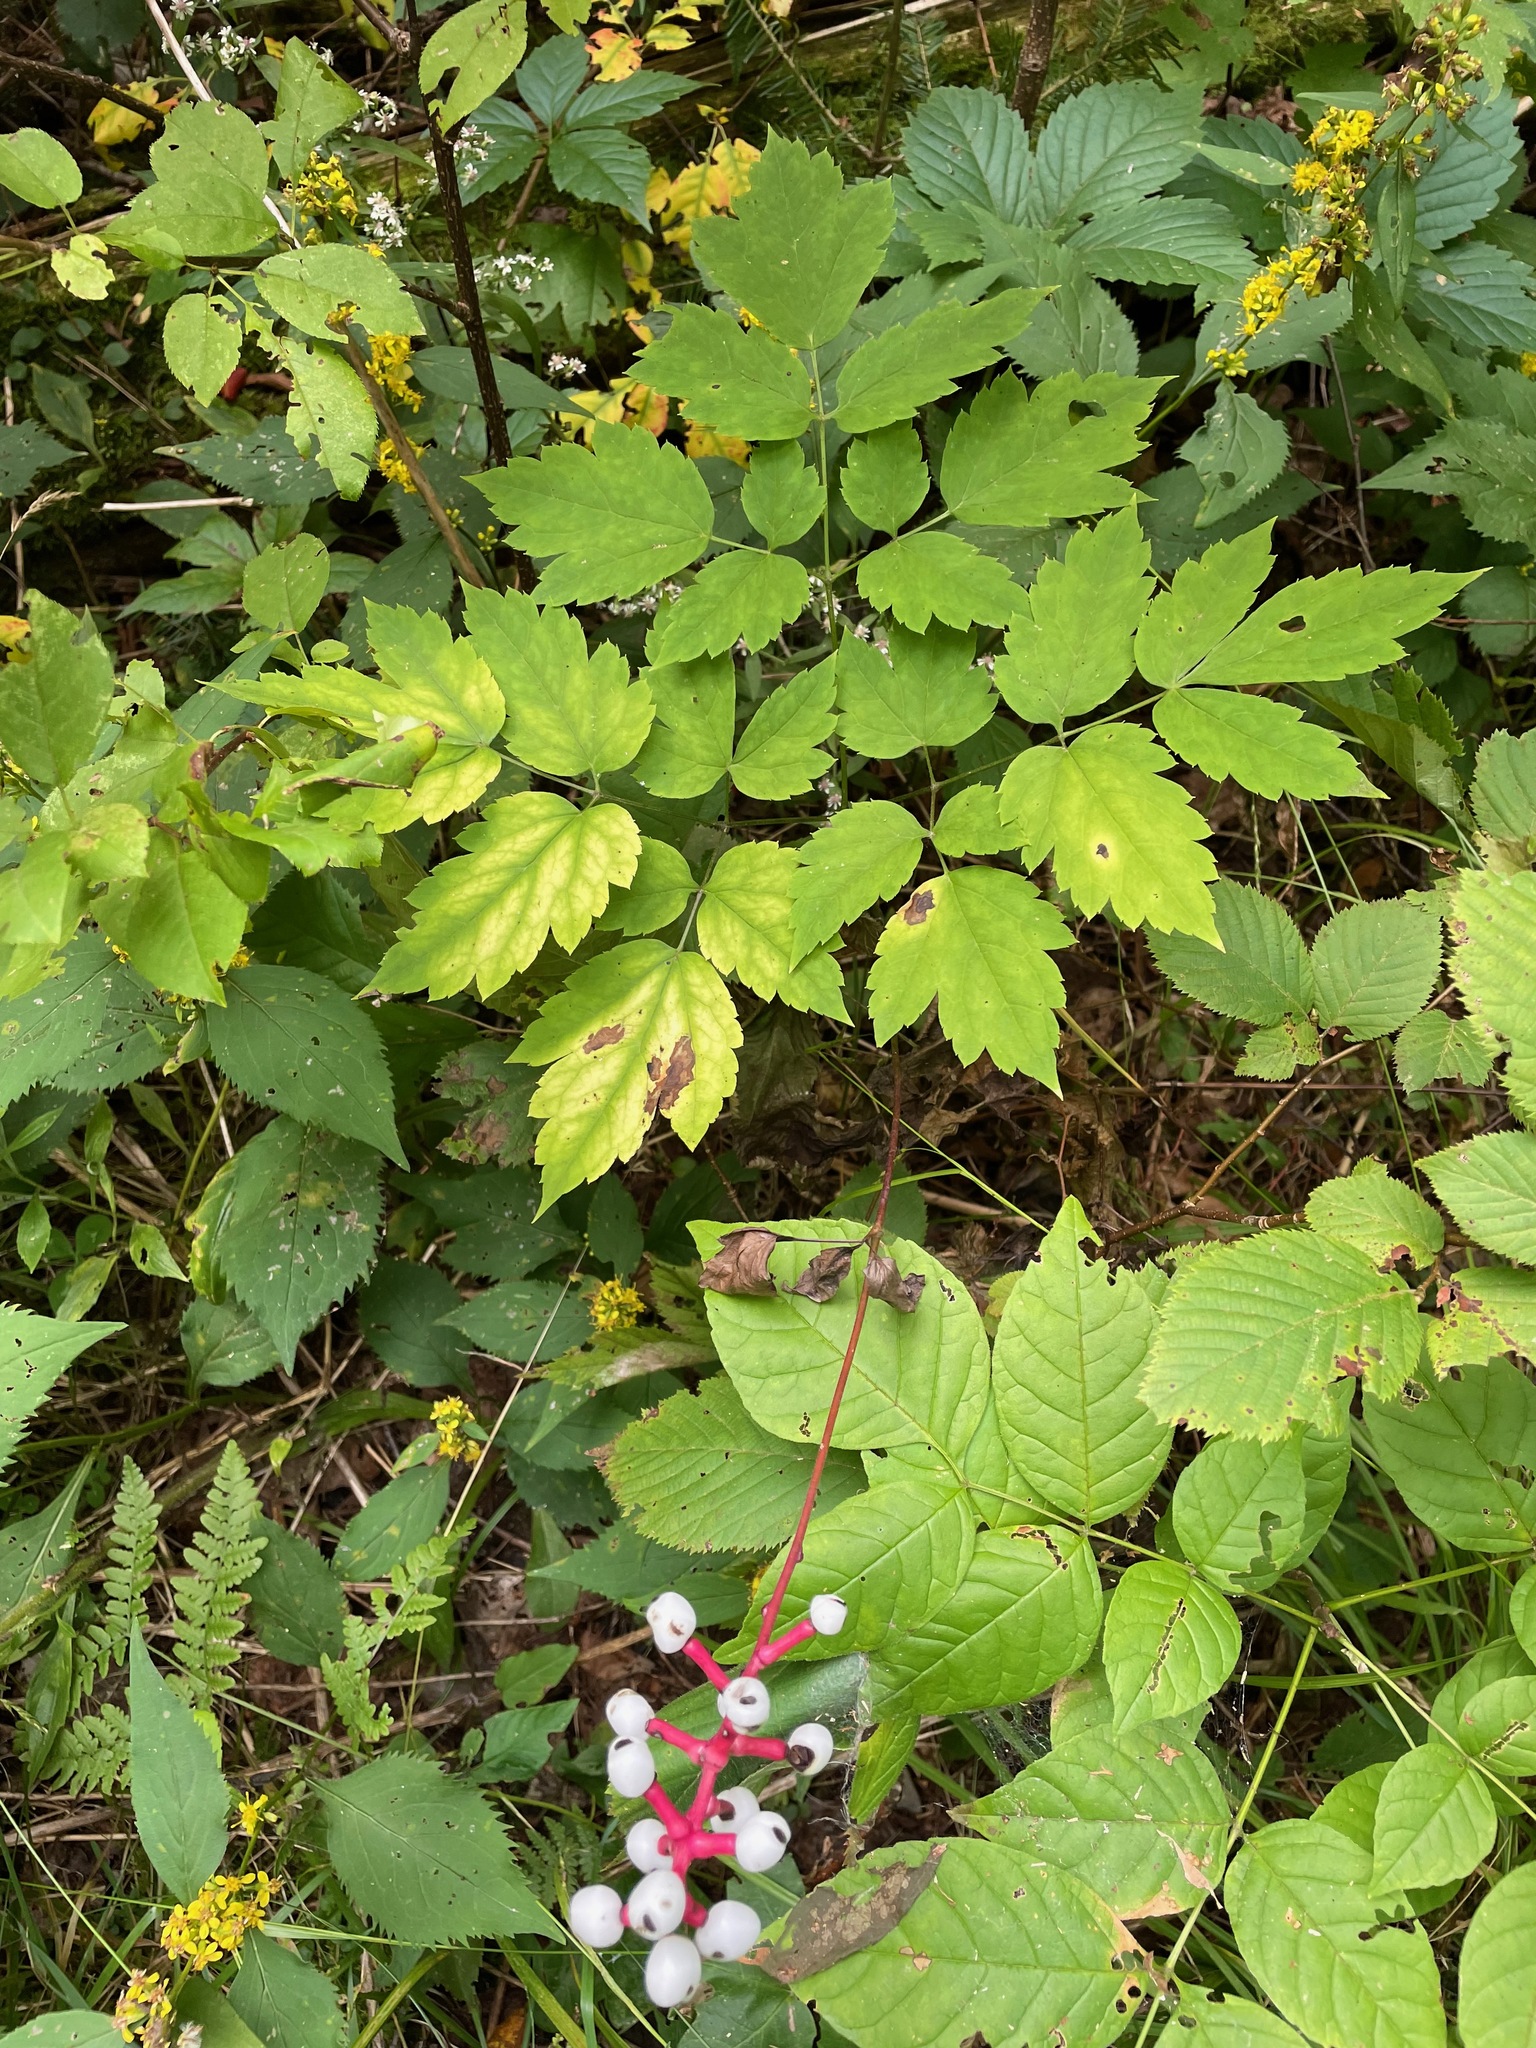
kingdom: Plantae
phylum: Tracheophyta
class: Magnoliopsida
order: Ranunculales
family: Ranunculaceae
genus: Actaea
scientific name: Actaea pachypoda
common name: Doll's-eyes
